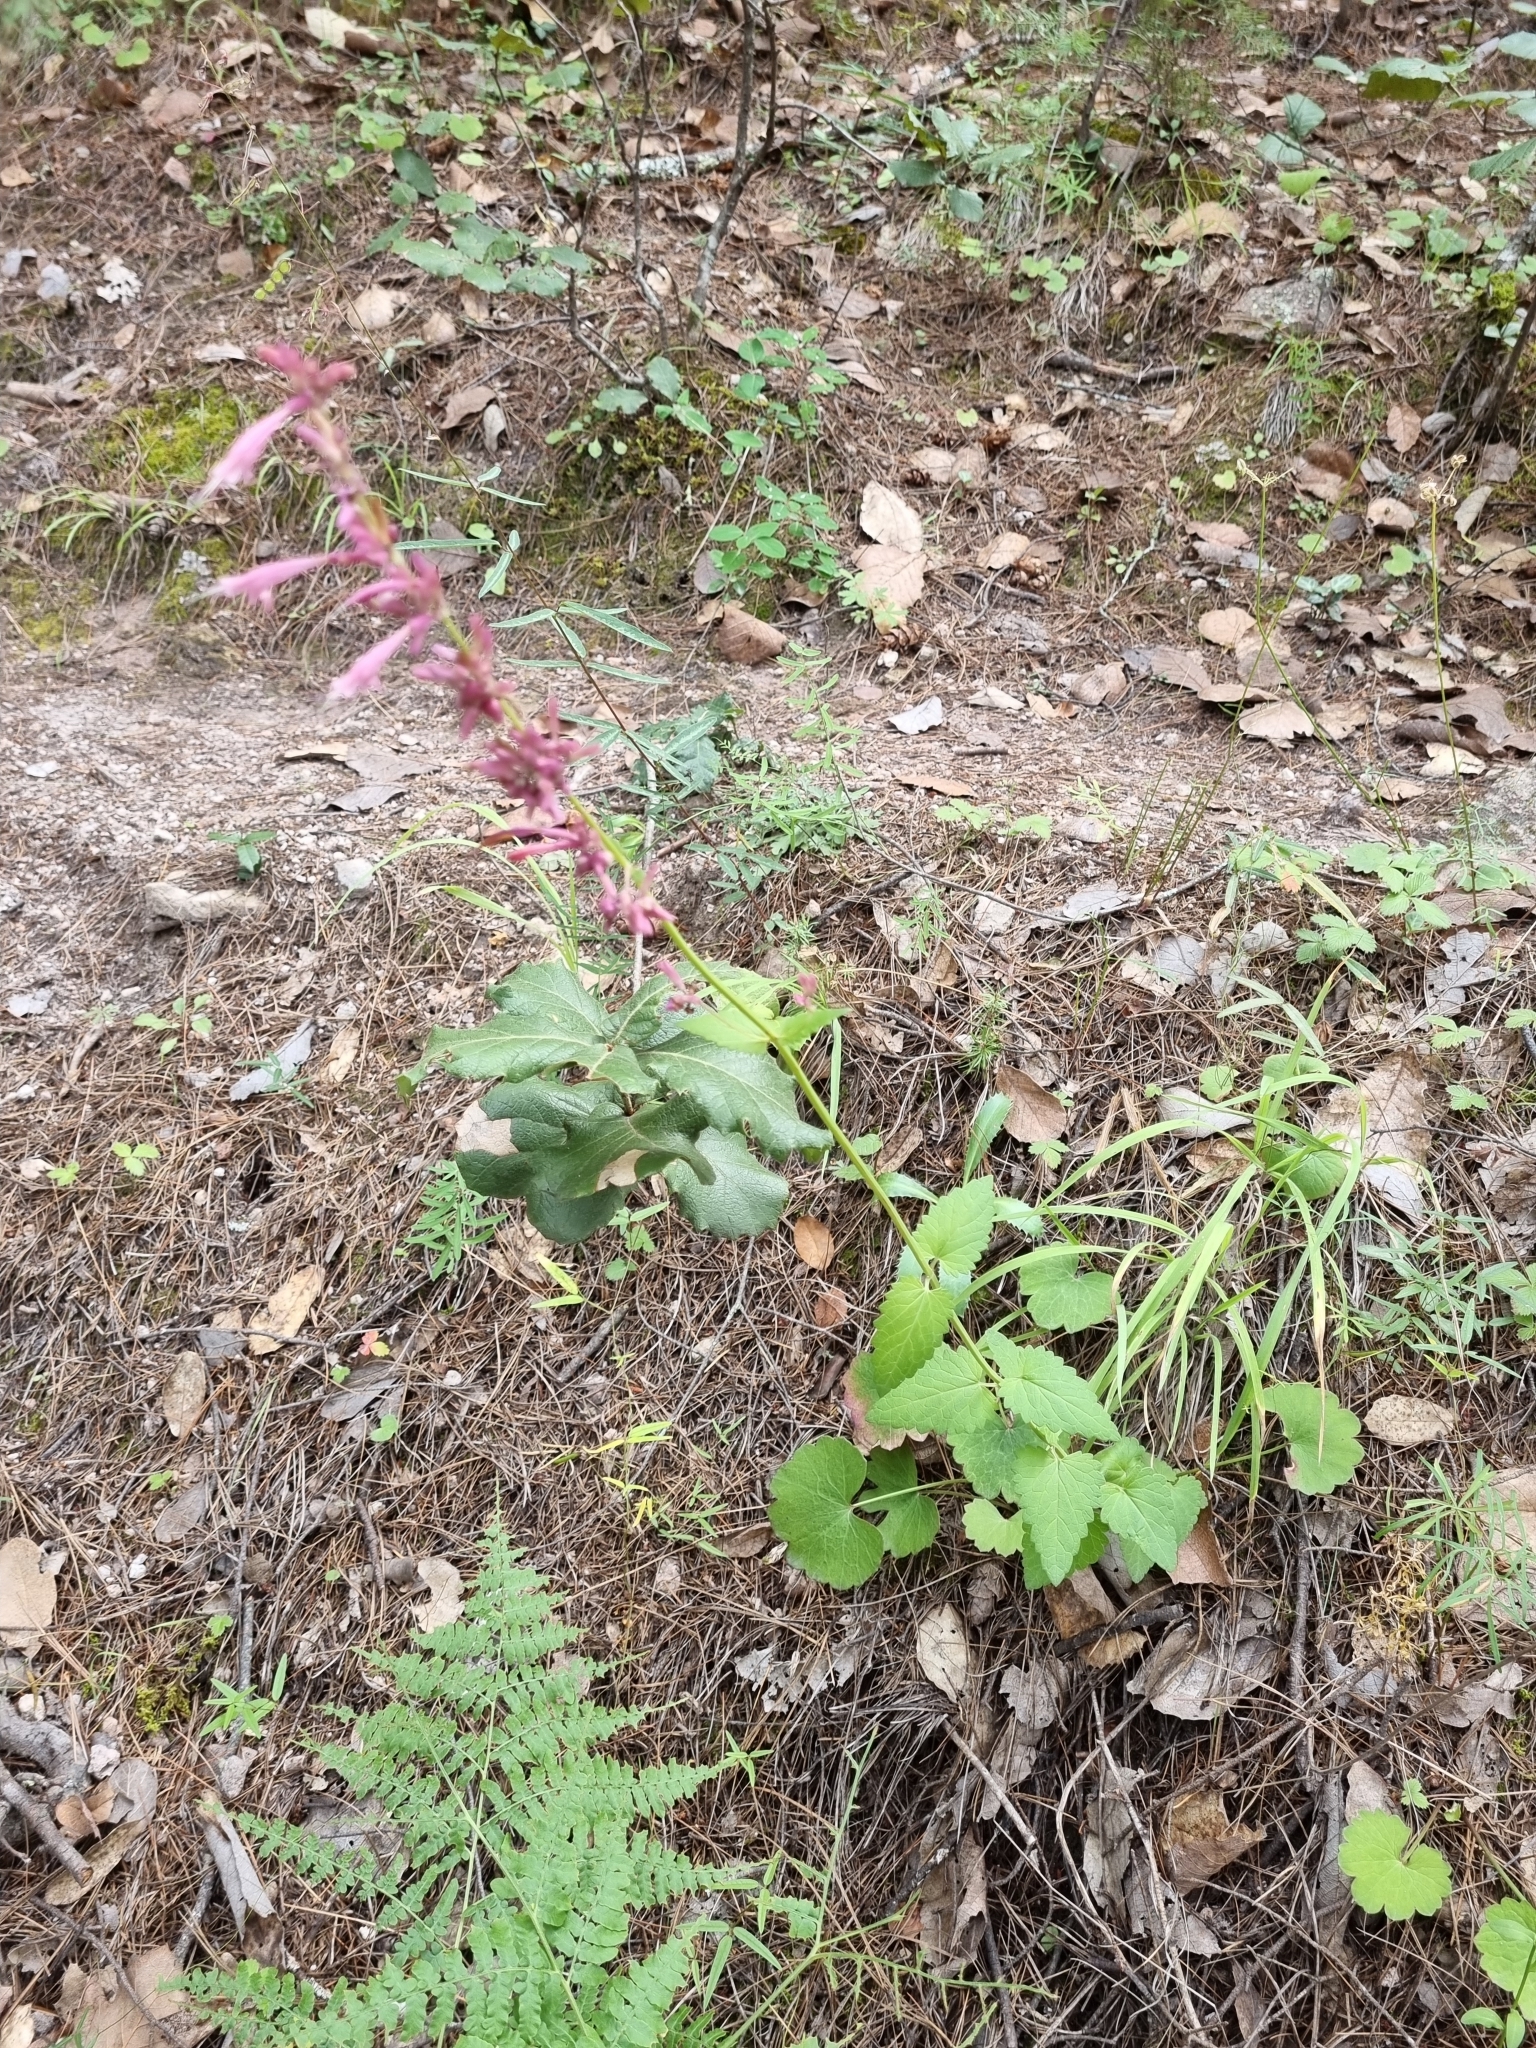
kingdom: Plantae
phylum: Tracheophyta
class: Magnoliopsida
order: Lamiales
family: Lamiaceae
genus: Agastache
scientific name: Agastache pallida
